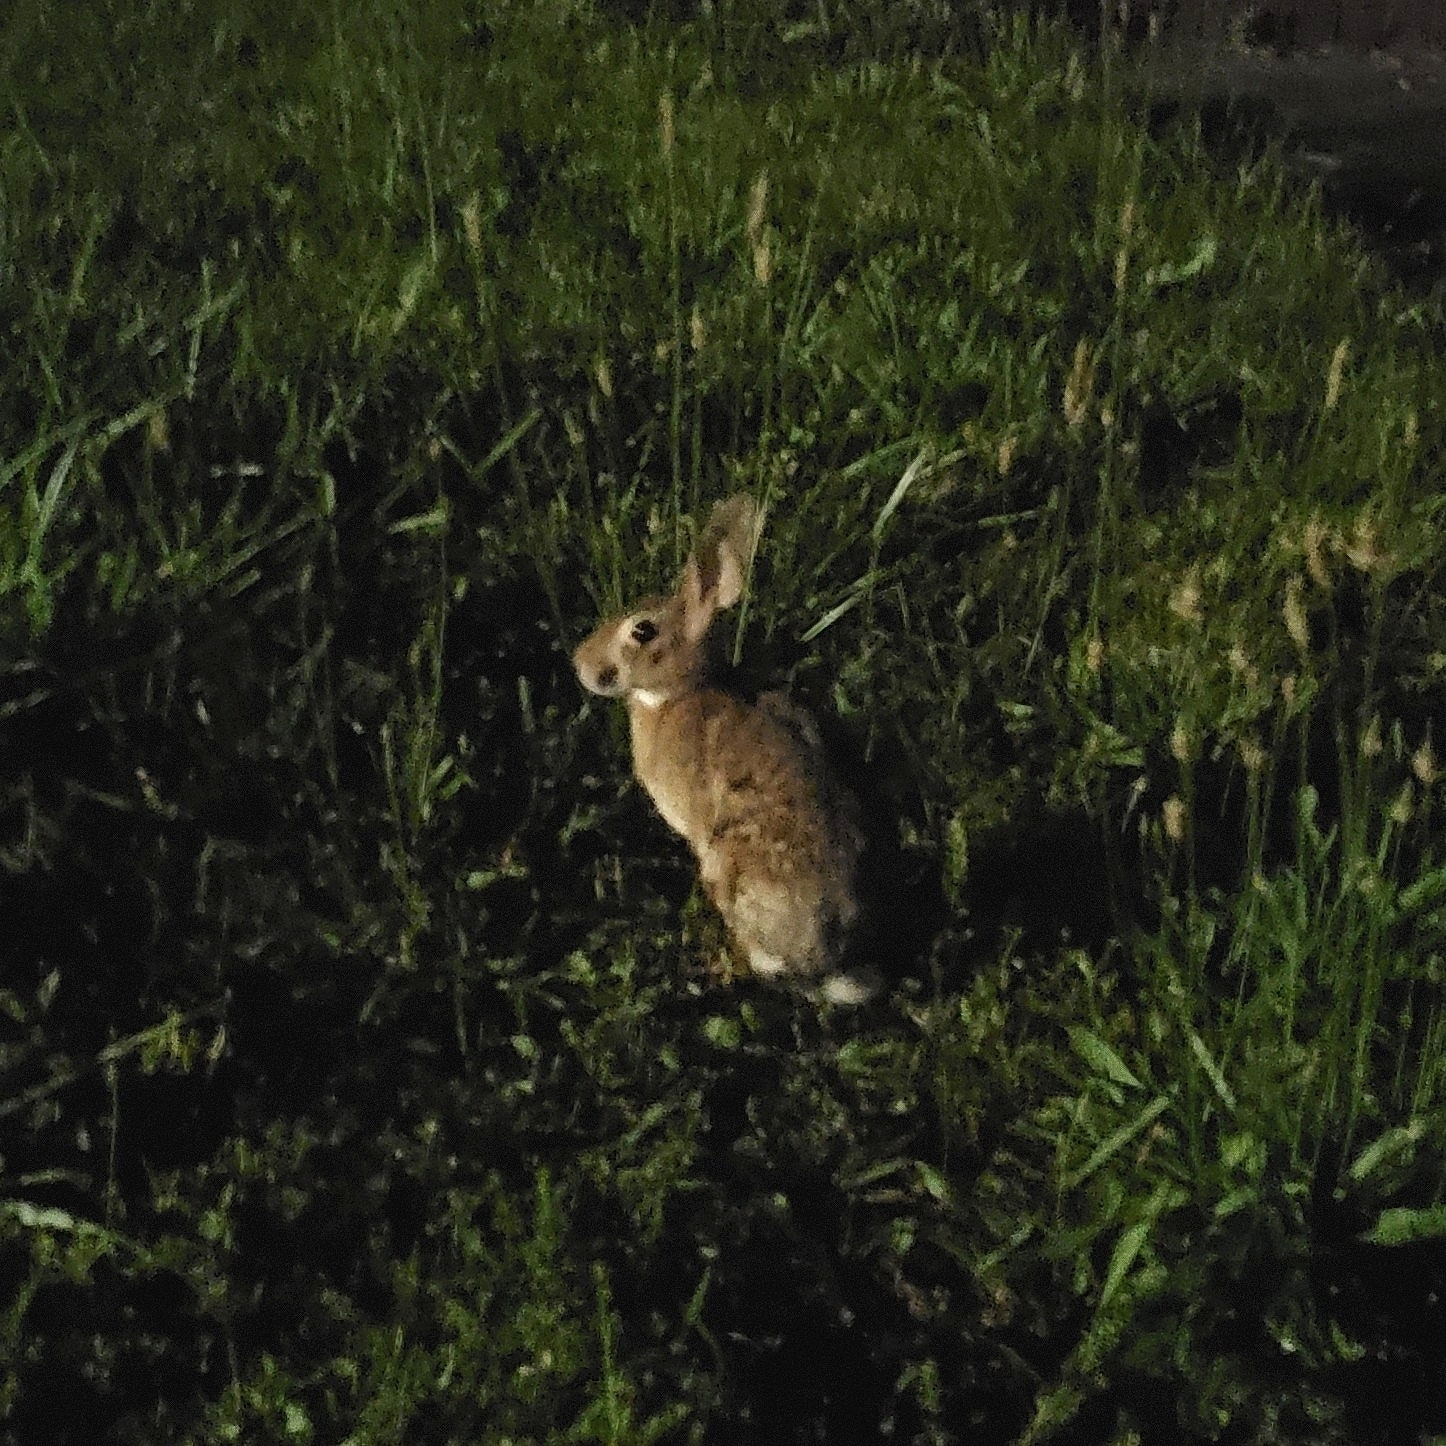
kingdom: Animalia
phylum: Chordata
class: Mammalia
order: Lagomorpha
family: Leporidae
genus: Sylvilagus
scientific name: Sylvilagus floridanus
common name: Eastern cottontail
